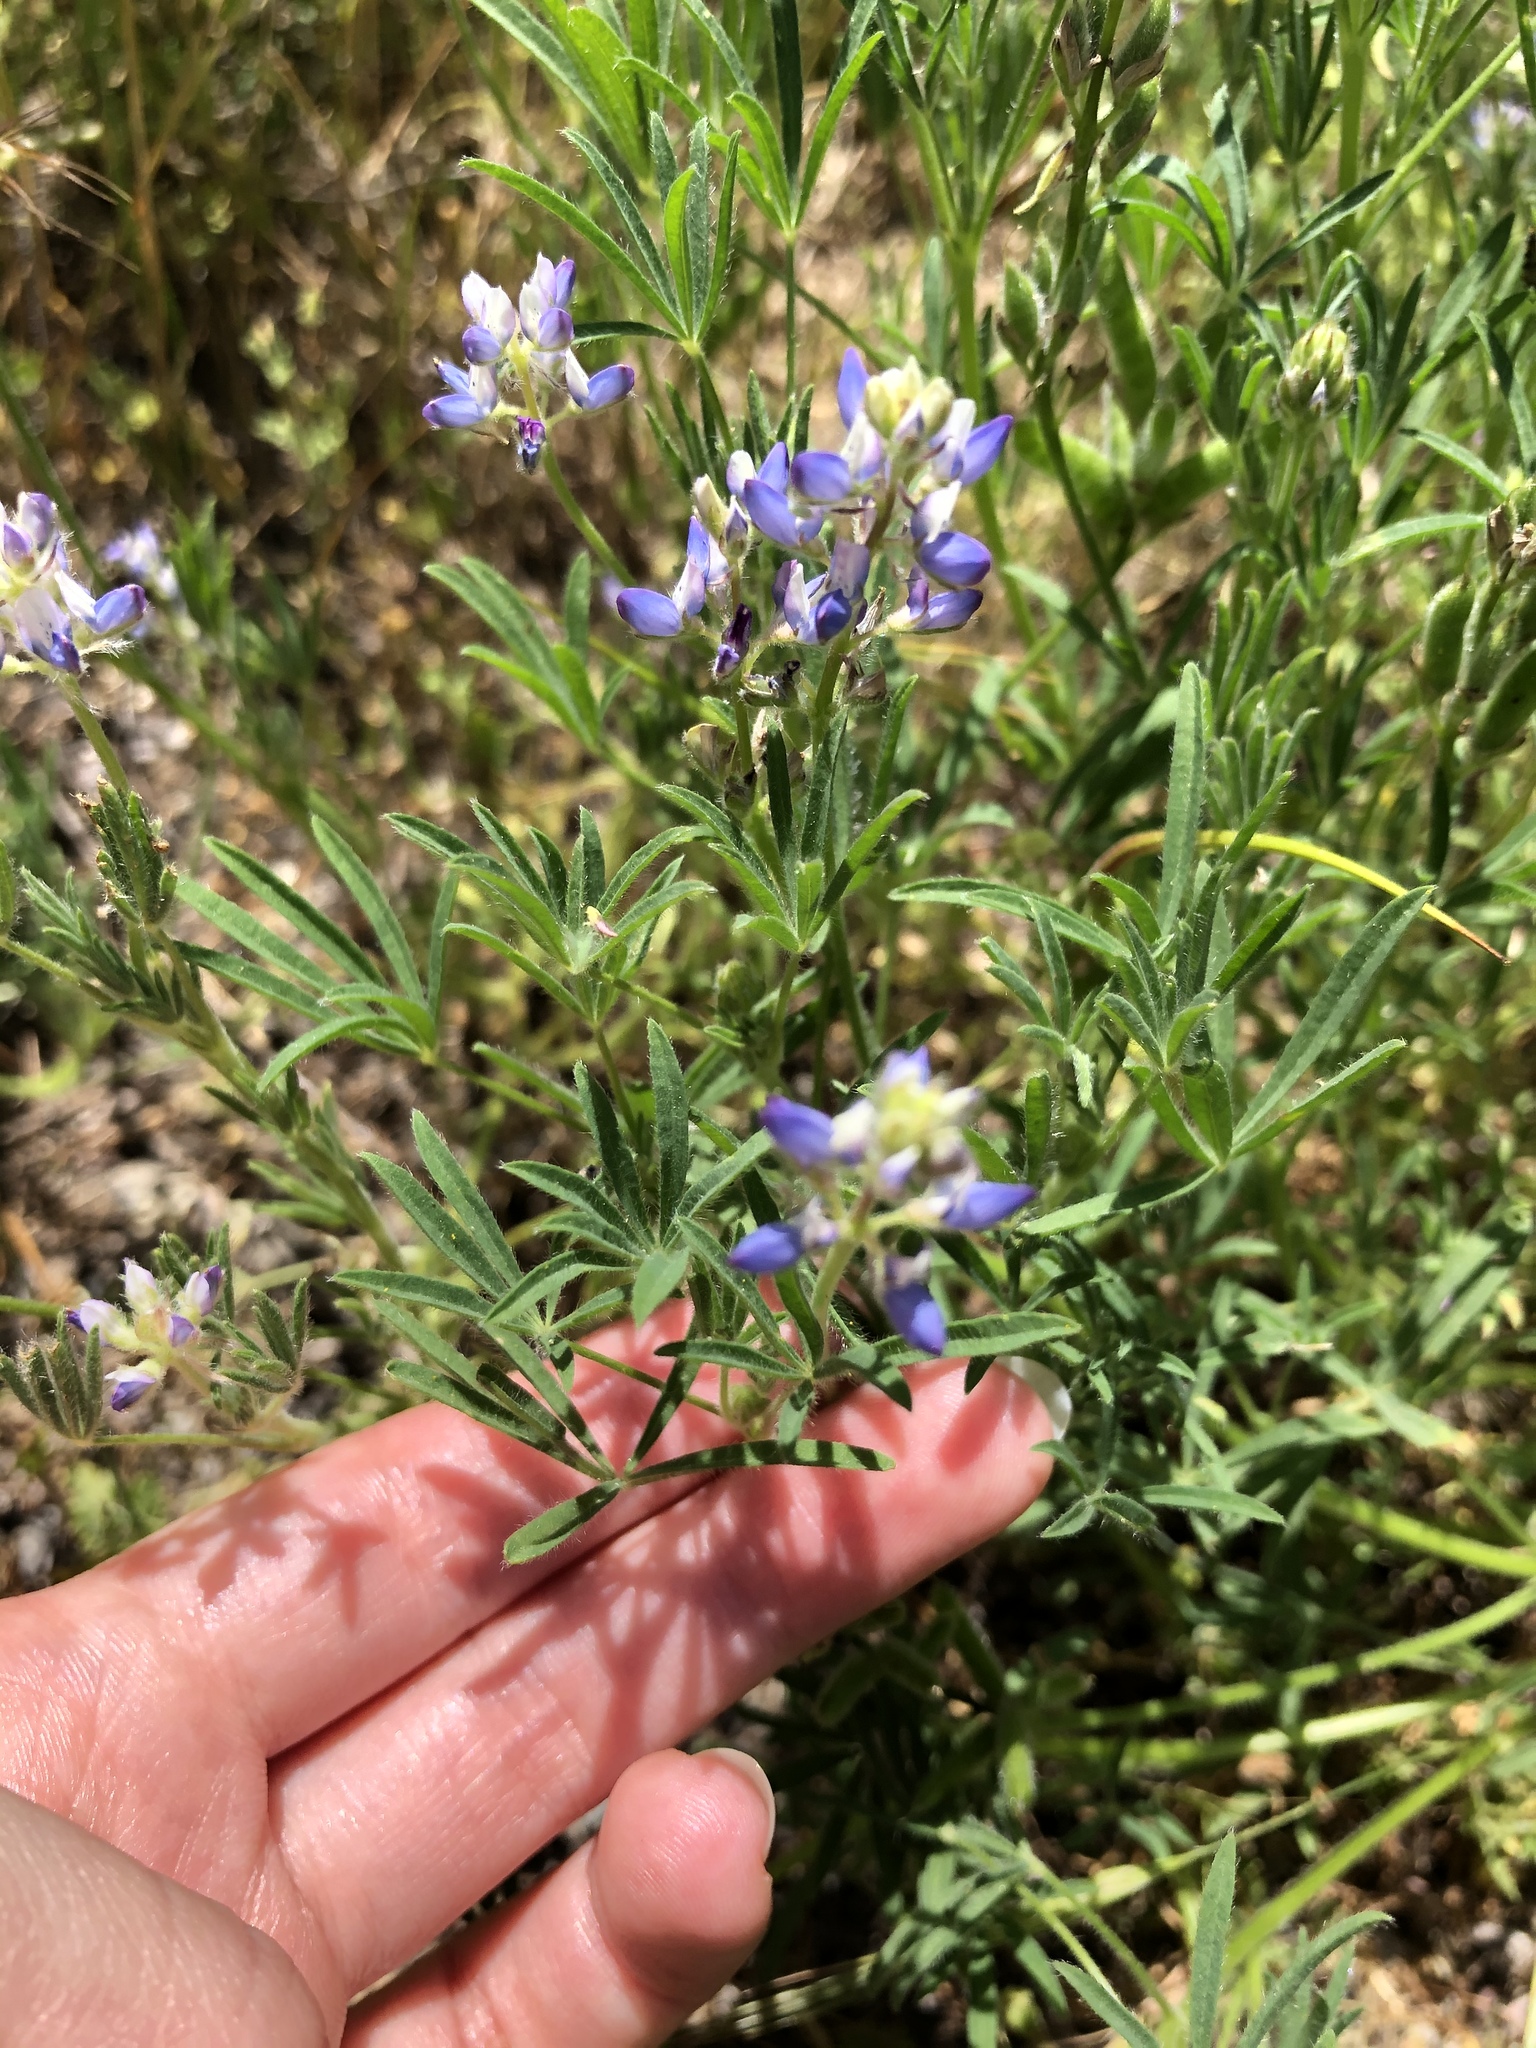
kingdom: Plantae
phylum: Tracheophyta
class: Magnoliopsida
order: Fabales
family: Fabaceae
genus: Lupinus
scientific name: Lupinus bicolor
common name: Miniature lupine
